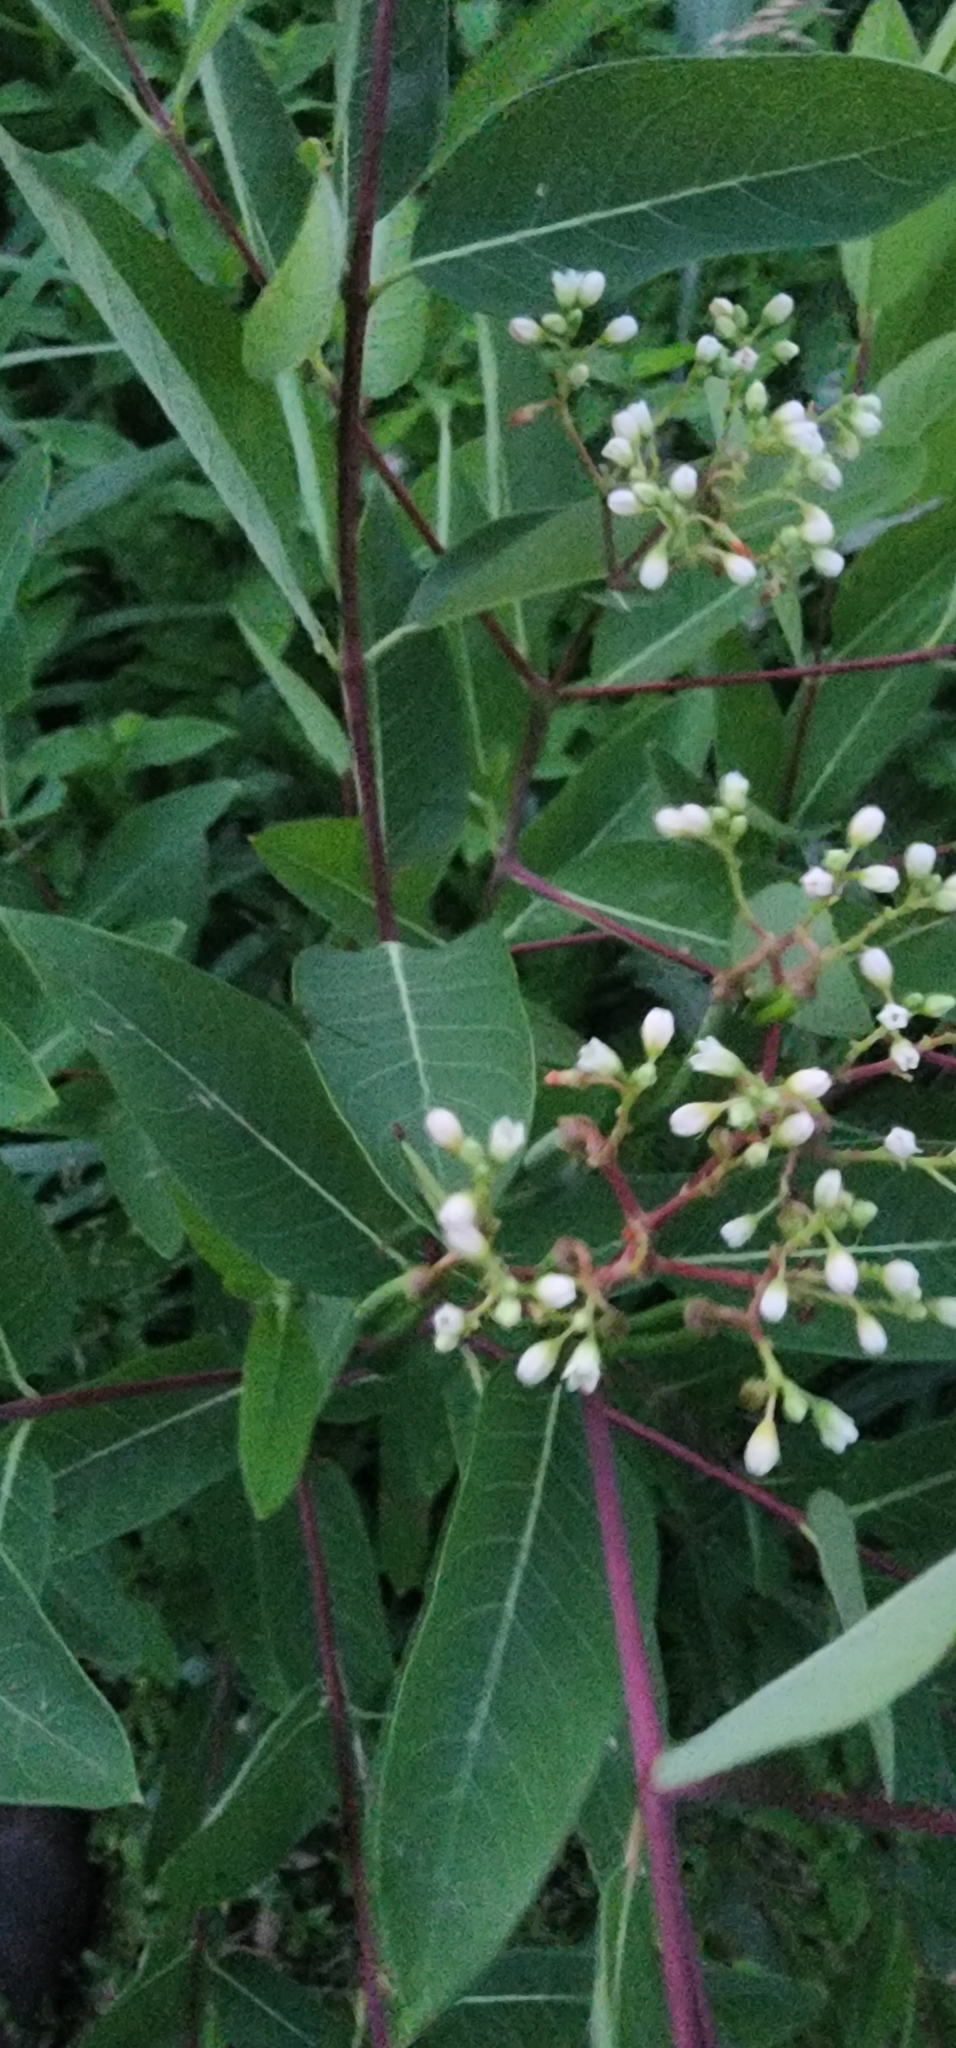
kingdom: Plantae
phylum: Tracheophyta
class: Magnoliopsida
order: Gentianales
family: Apocynaceae
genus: Apocynum
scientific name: Apocynum cannabinum
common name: Hemp dogbane
